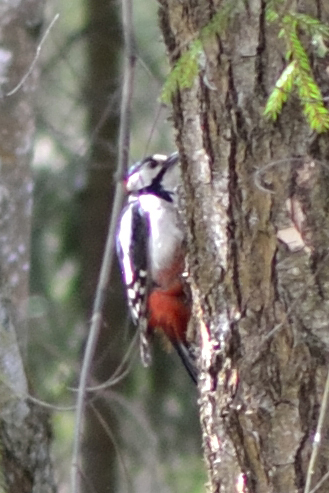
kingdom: Animalia
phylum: Chordata
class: Aves
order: Piciformes
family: Picidae
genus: Dendrocopos
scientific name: Dendrocopos major
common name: Great spotted woodpecker
